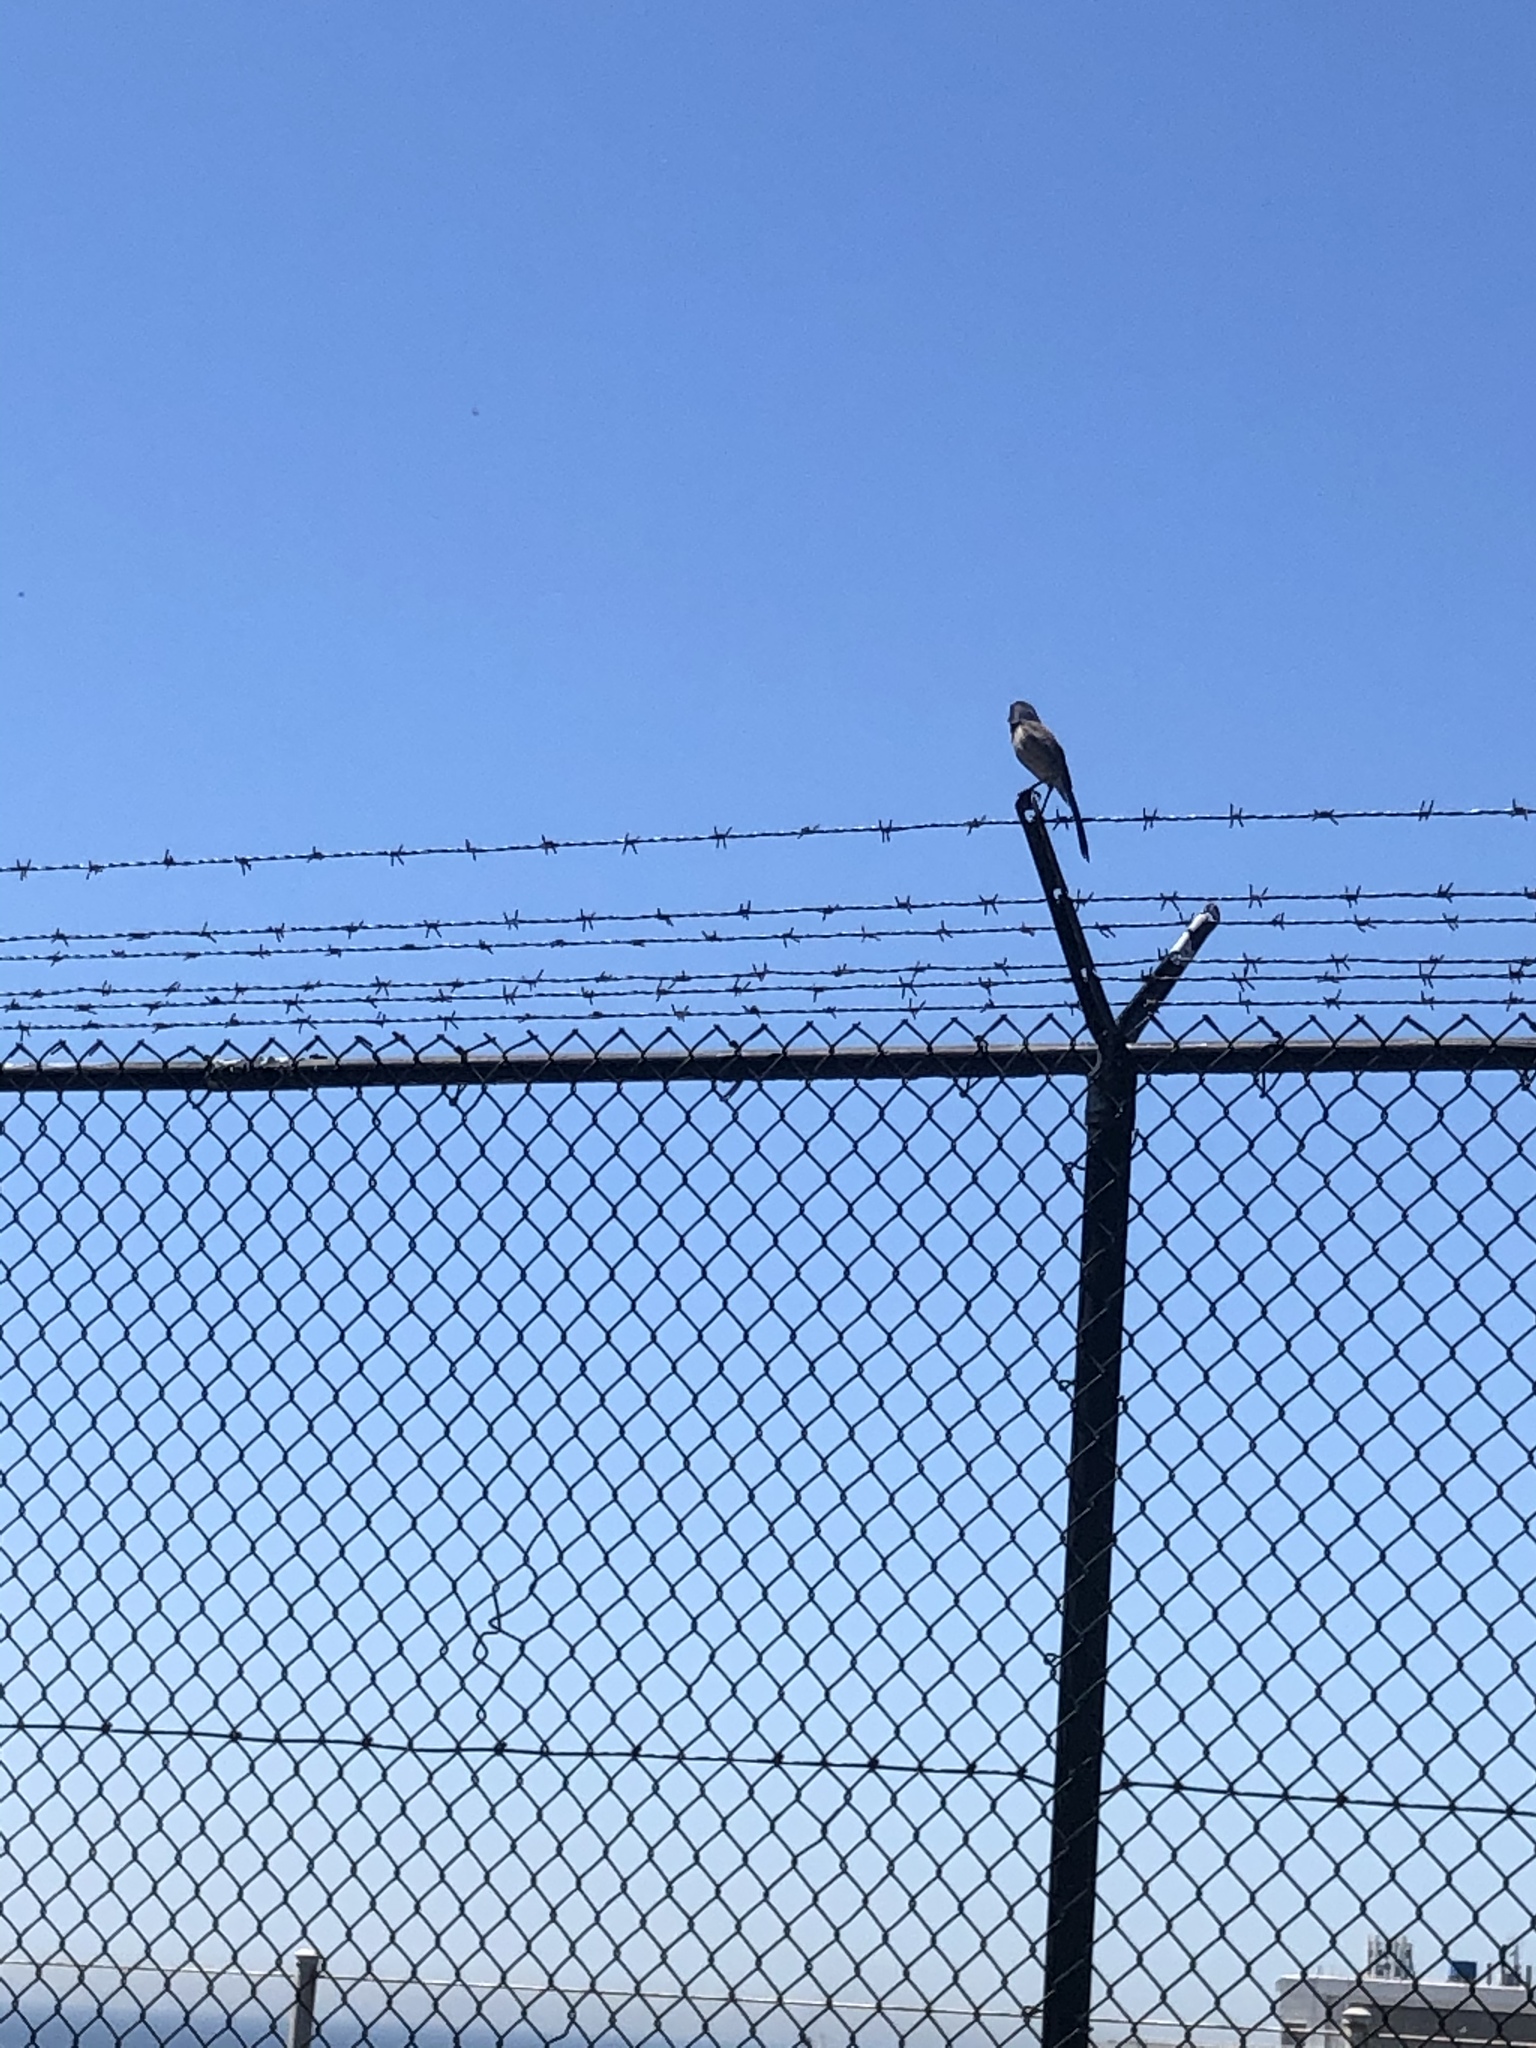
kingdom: Animalia
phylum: Chordata
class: Aves
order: Passeriformes
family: Corvidae
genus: Aphelocoma
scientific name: Aphelocoma californica
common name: California scrub-jay
